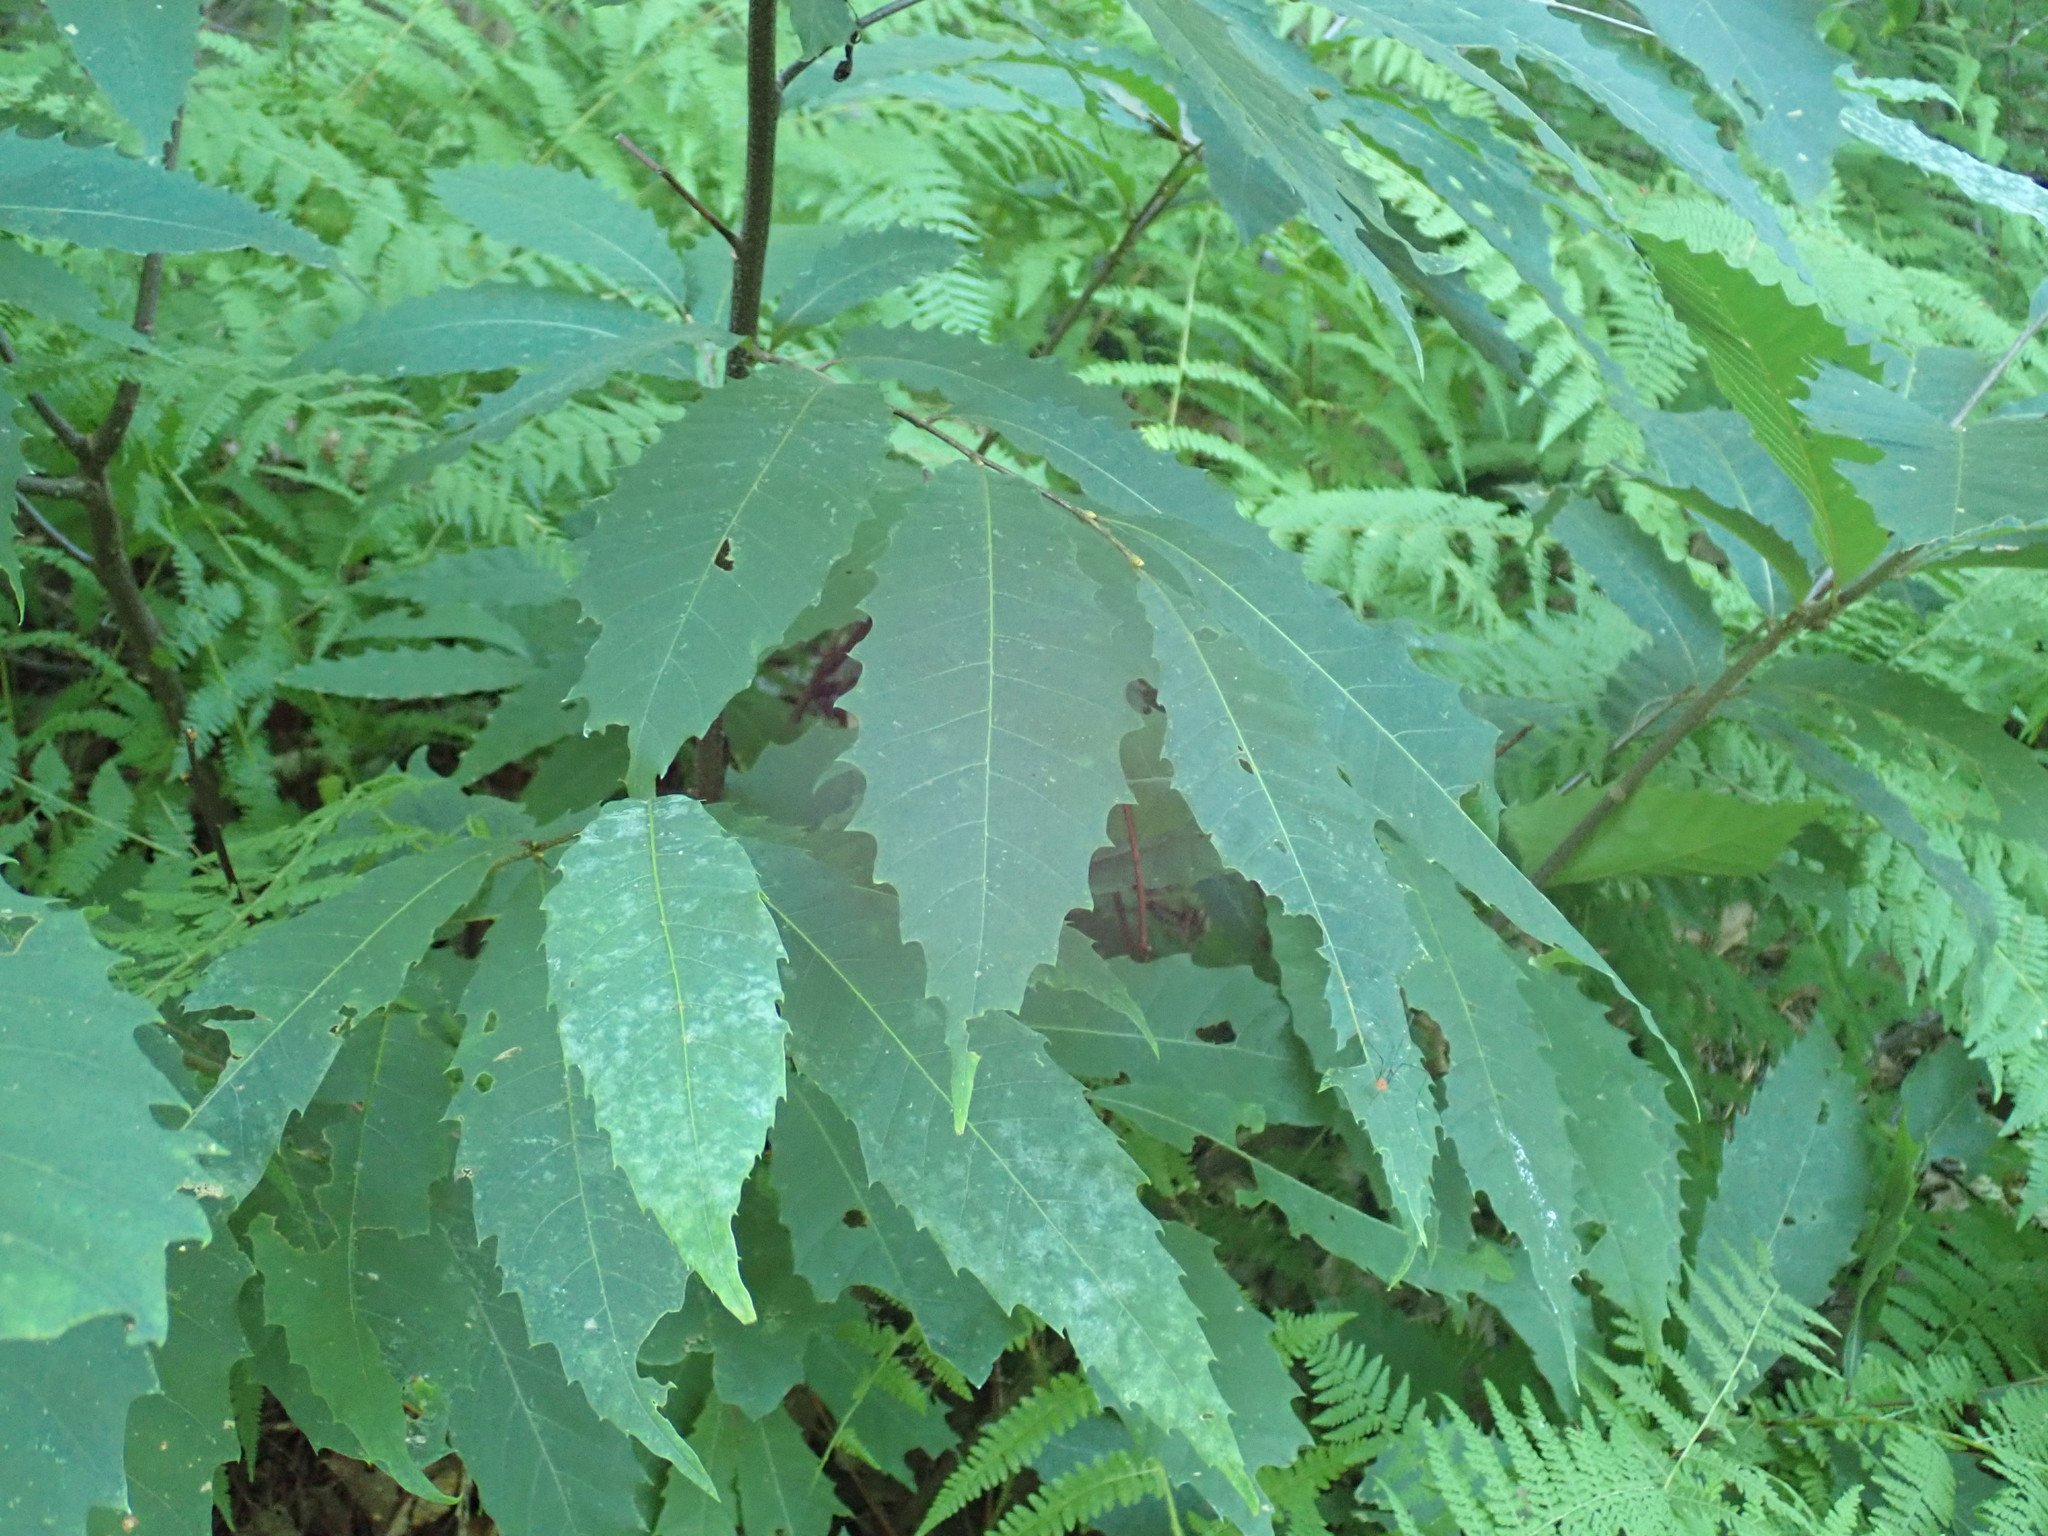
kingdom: Plantae
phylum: Tracheophyta
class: Magnoliopsida
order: Fagales
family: Fagaceae
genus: Castanea
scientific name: Castanea dentata
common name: American chestnut
